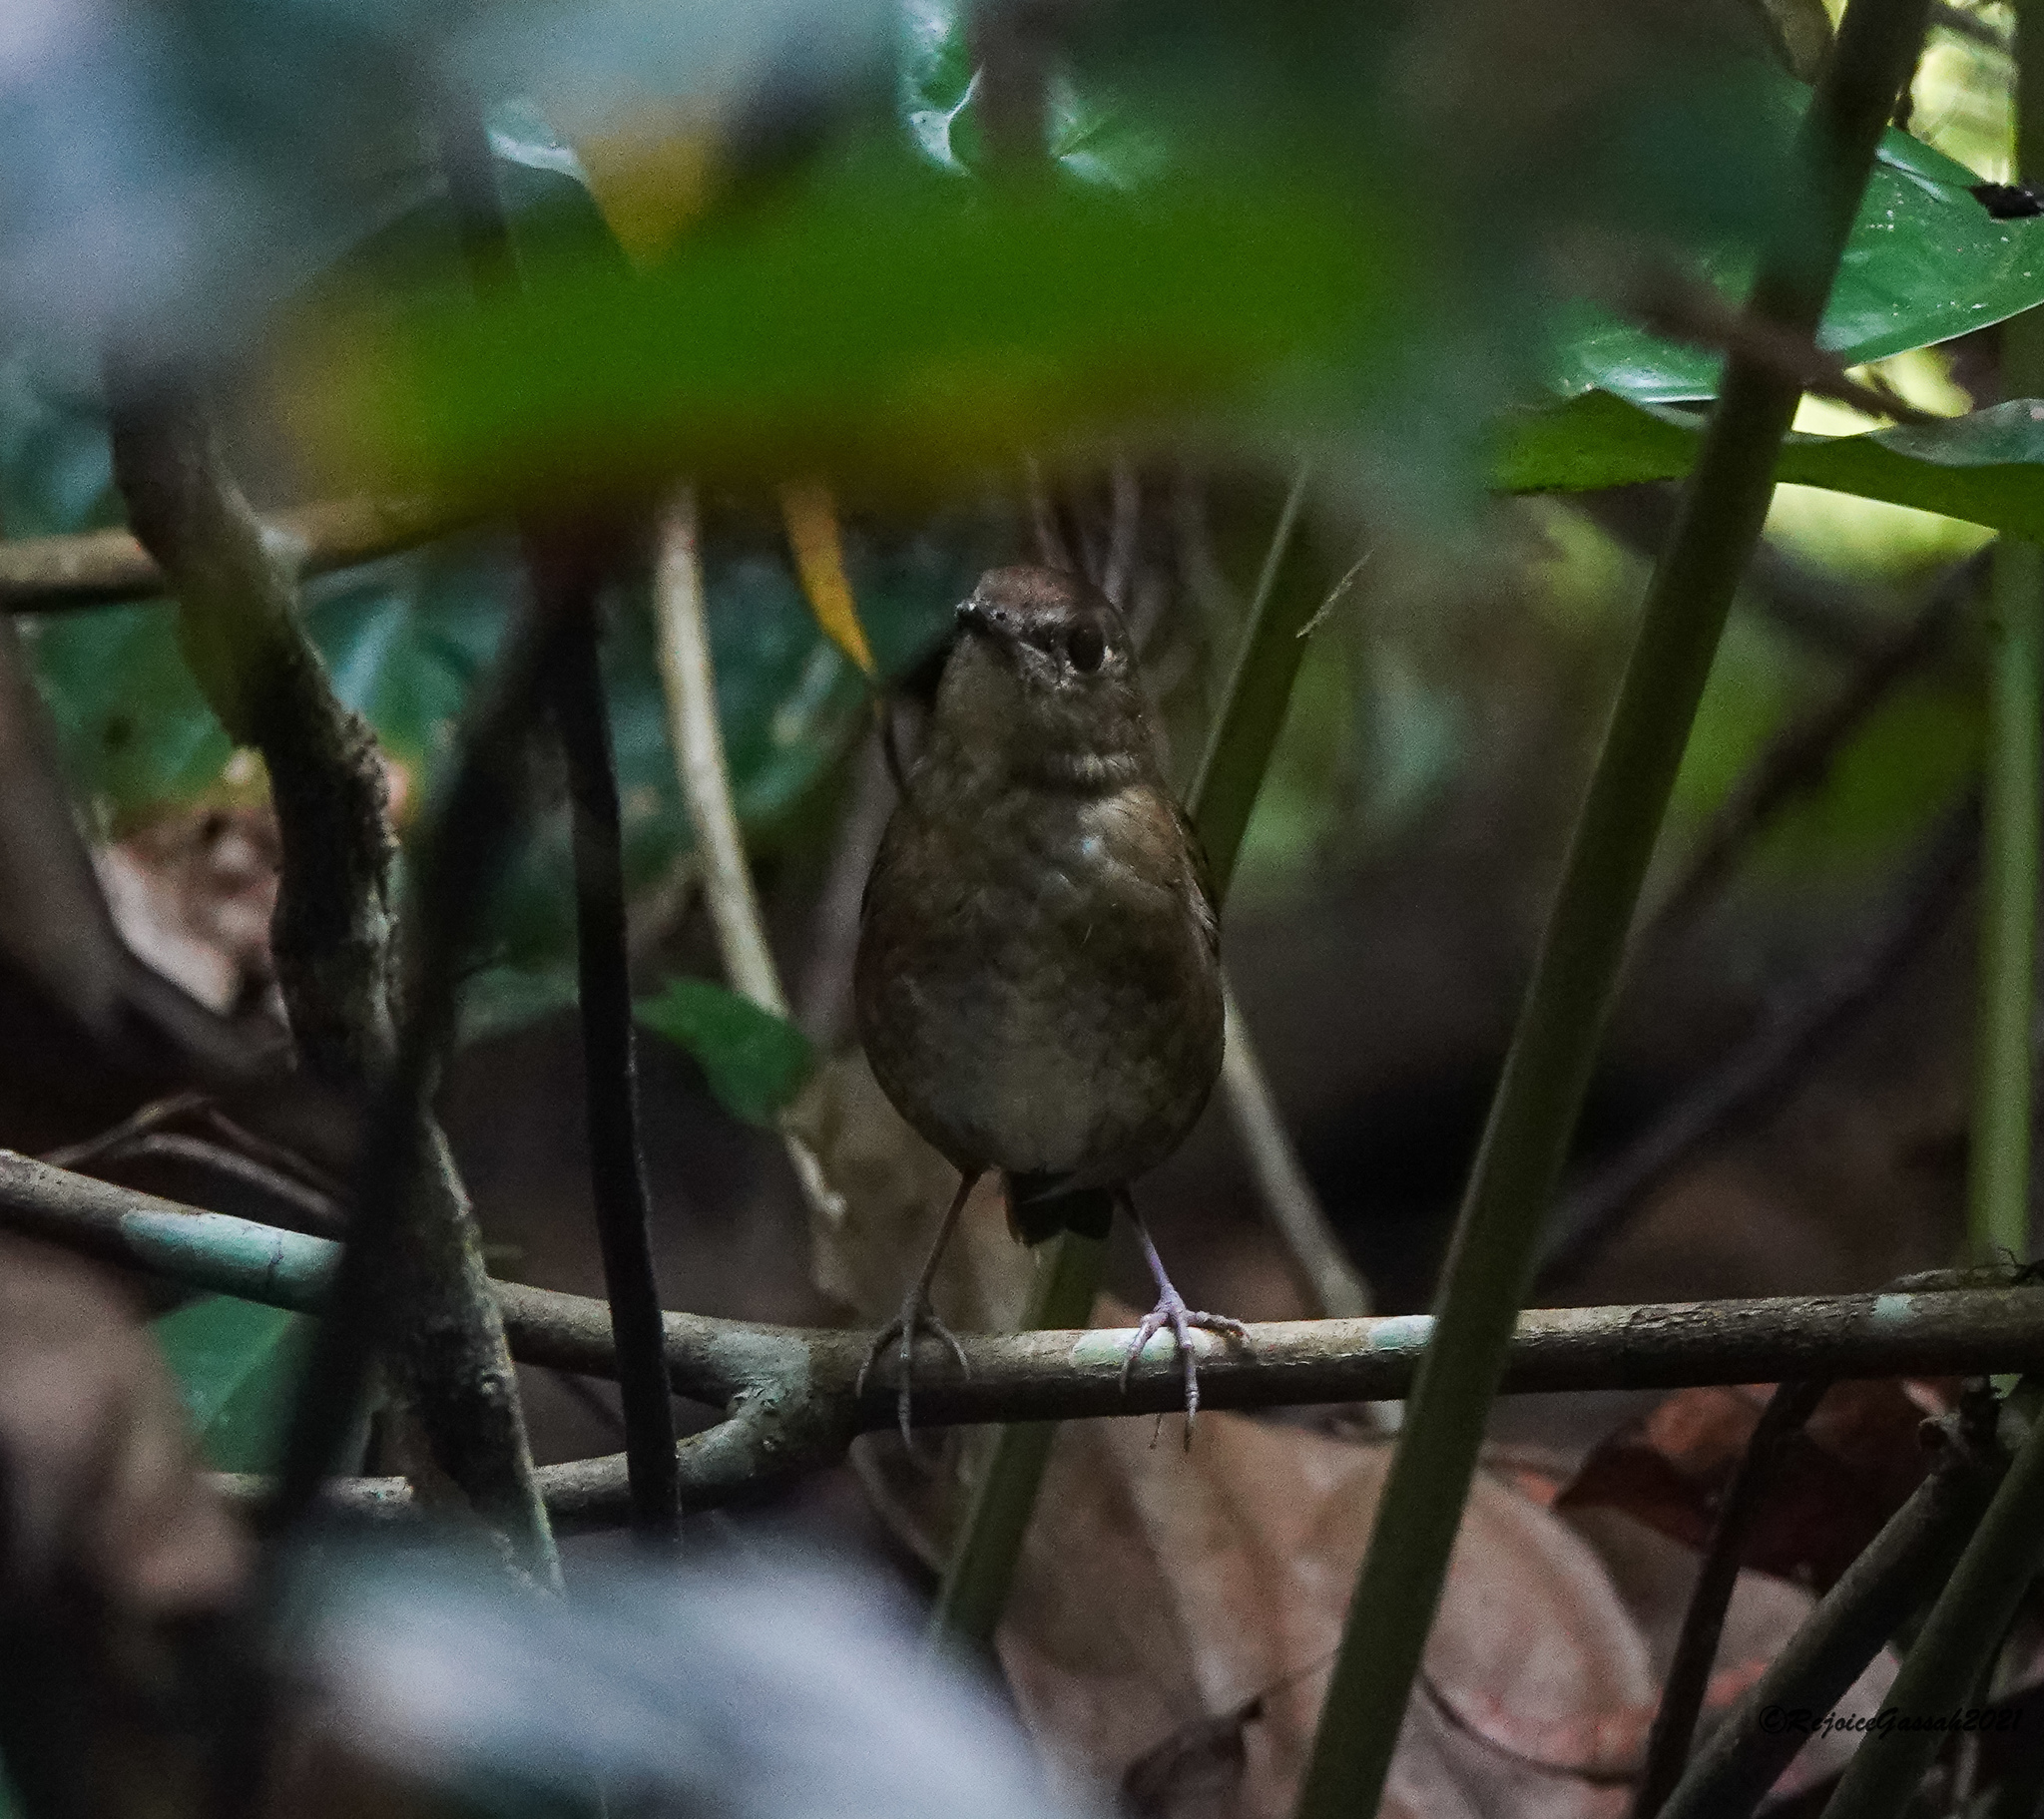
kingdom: Animalia
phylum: Chordata
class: Aves
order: Passeriformes
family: Muscicapidae
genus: Brachypteryx
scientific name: Brachypteryx leucophris
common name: Lesser shortwing
